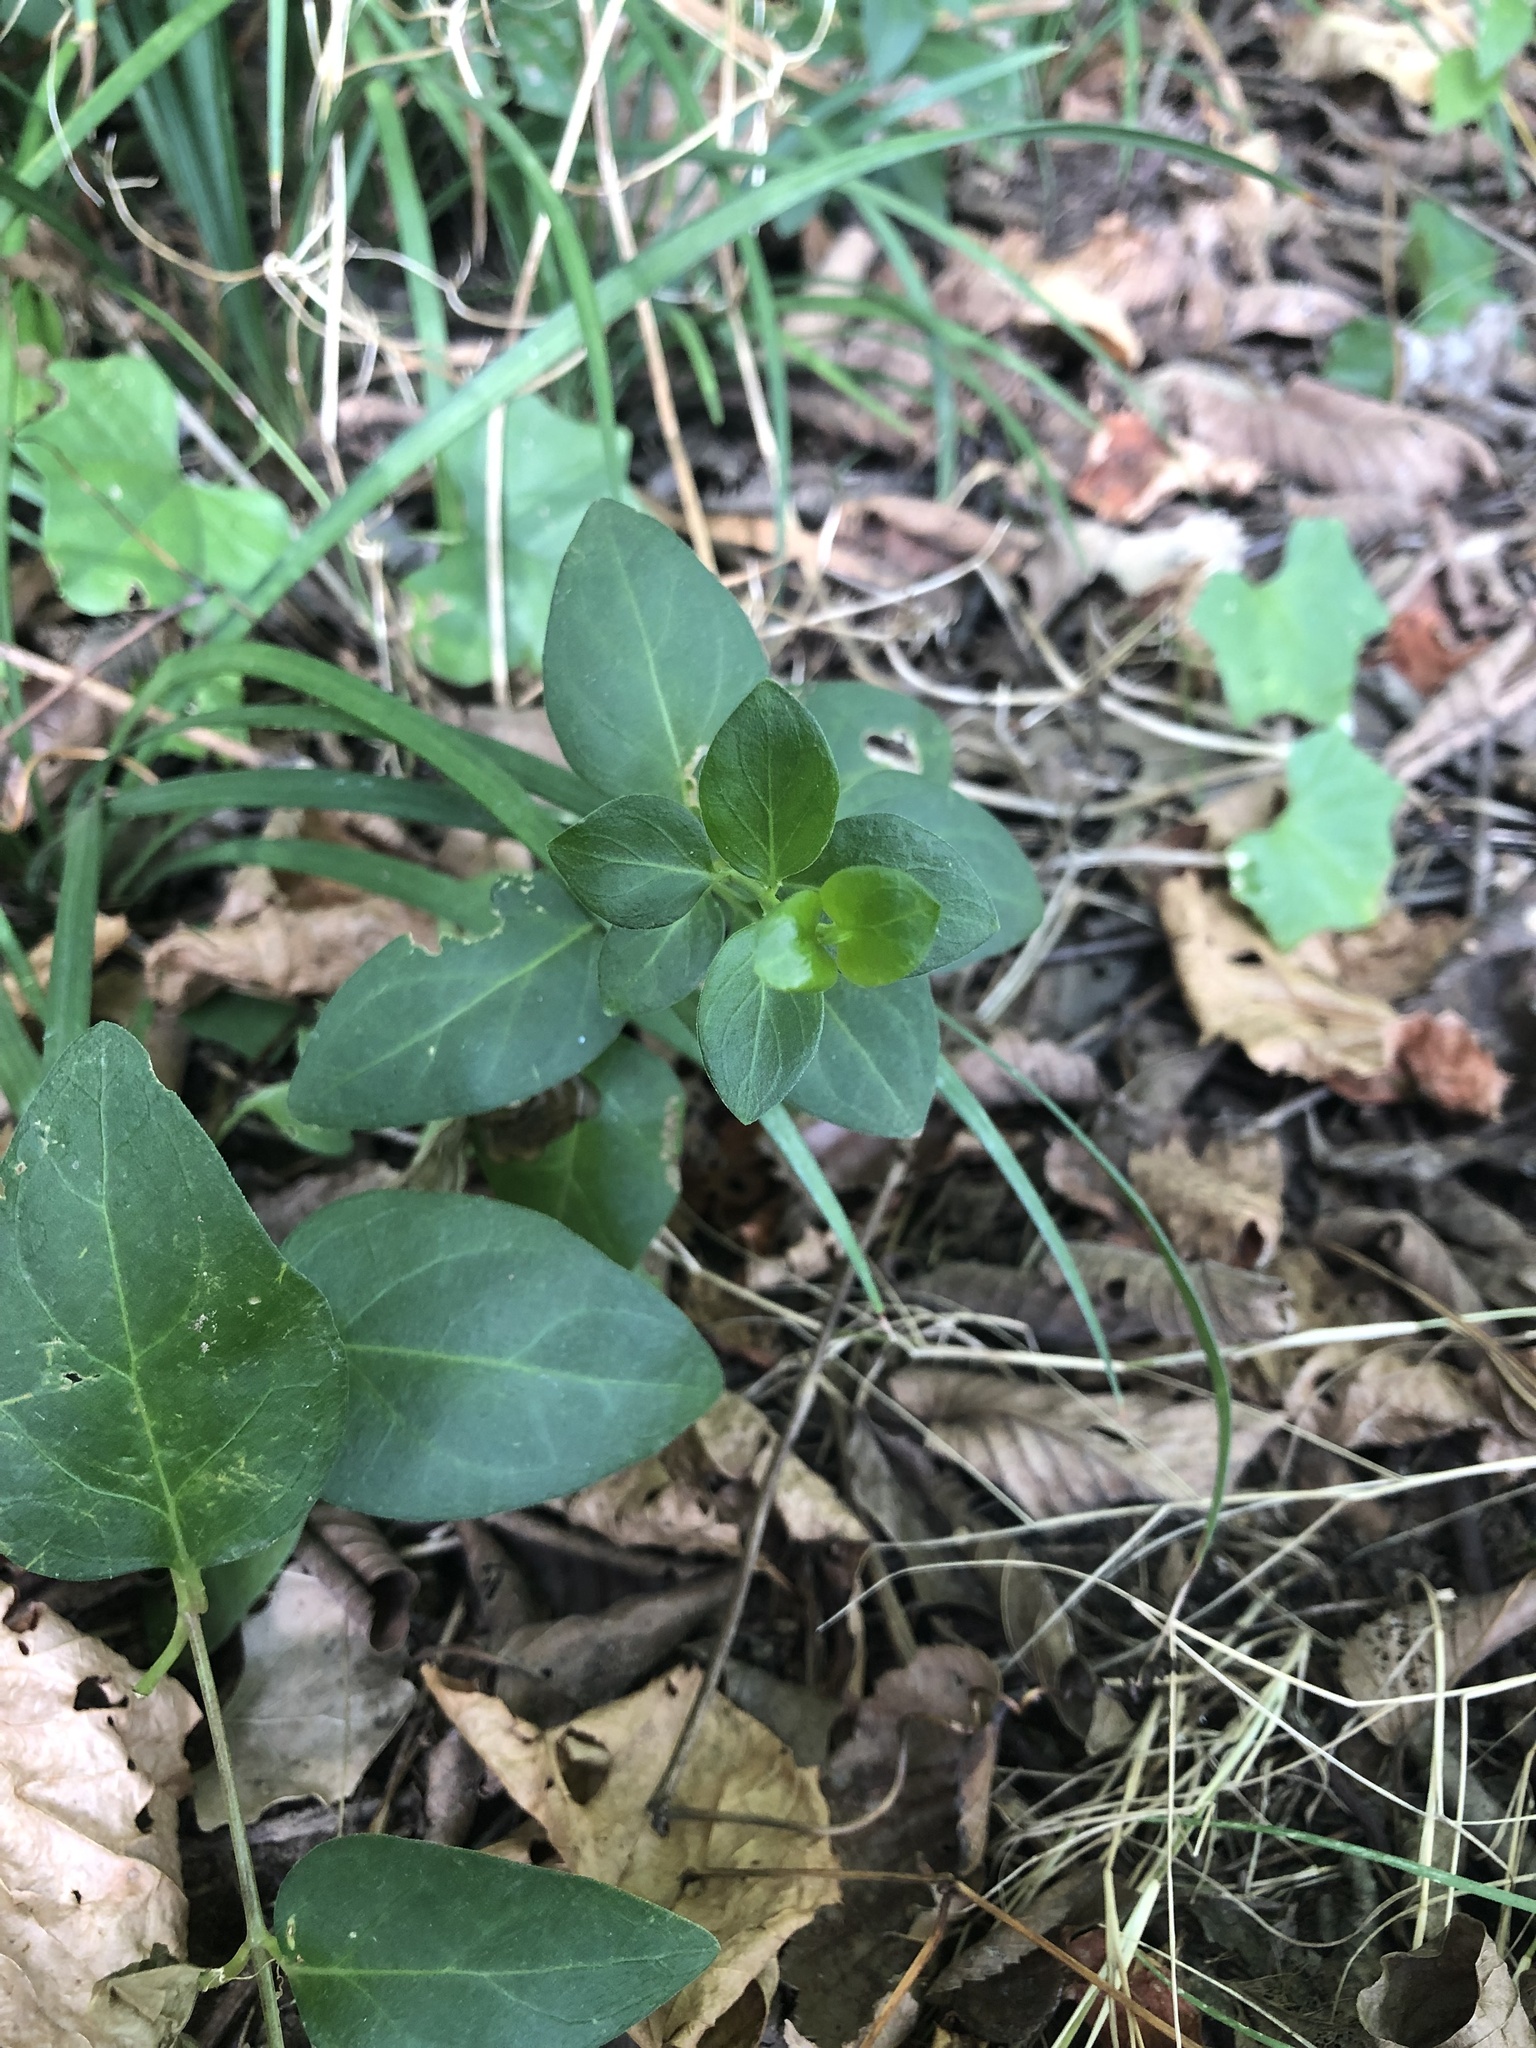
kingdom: Plantae
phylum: Tracheophyta
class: Magnoliopsida
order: Gentianales
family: Apocynaceae
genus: Vinca
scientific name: Vinca major
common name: Greater periwinkle
